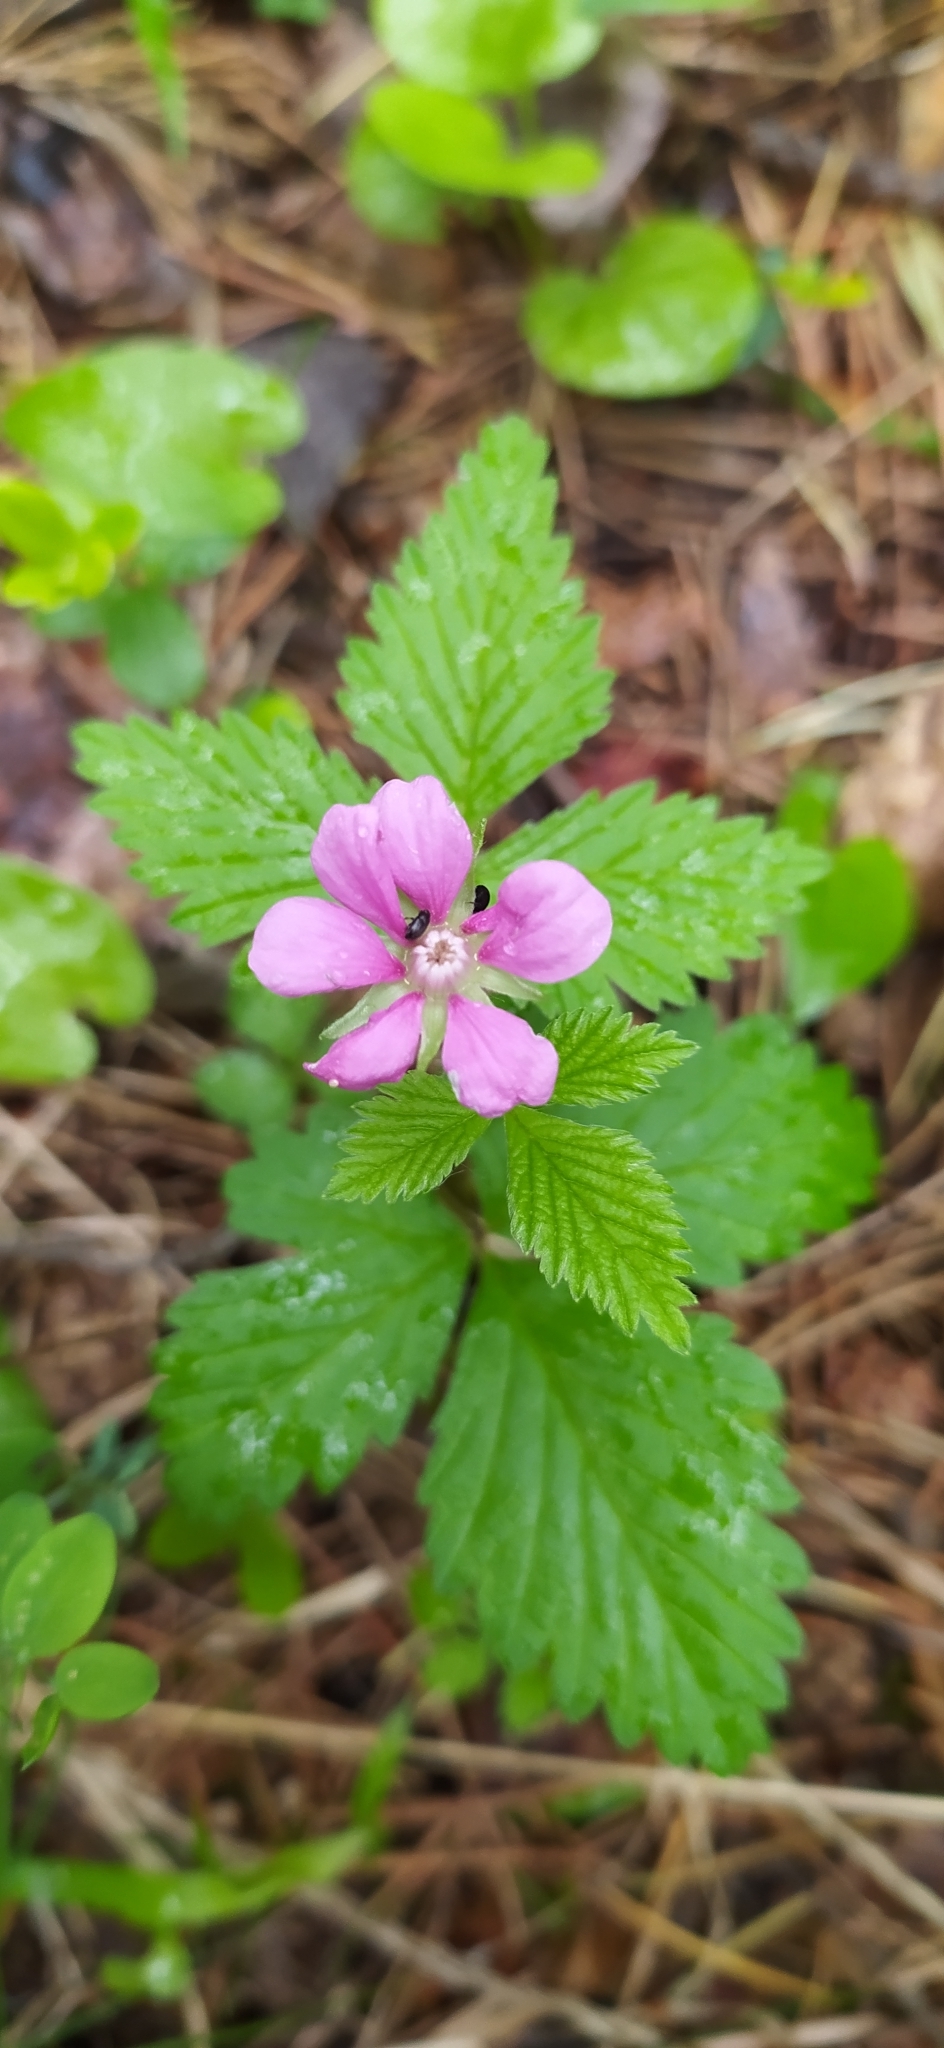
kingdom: Plantae
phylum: Tracheophyta
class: Magnoliopsida
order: Rosales
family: Rosaceae
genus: Rubus
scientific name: Rubus arcticus
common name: Arctic bramble
